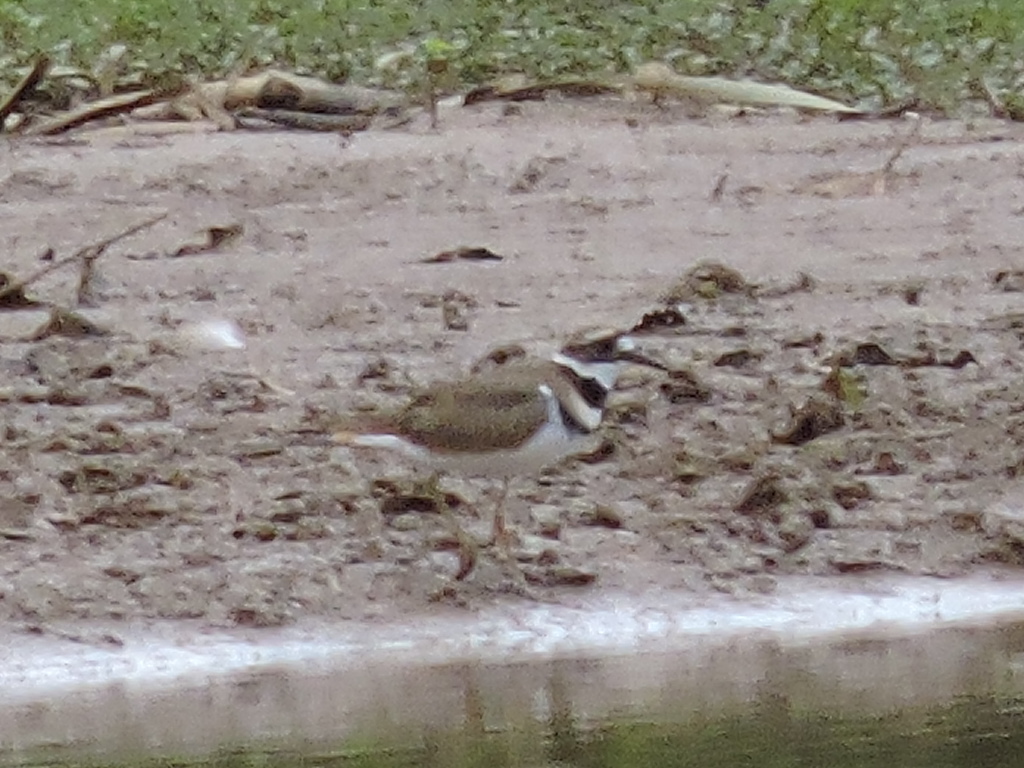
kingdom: Animalia
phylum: Chordata
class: Aves
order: Charadriiformes
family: Charadriidae
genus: Charadrius
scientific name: Charadrius vociferus
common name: Killdeer
